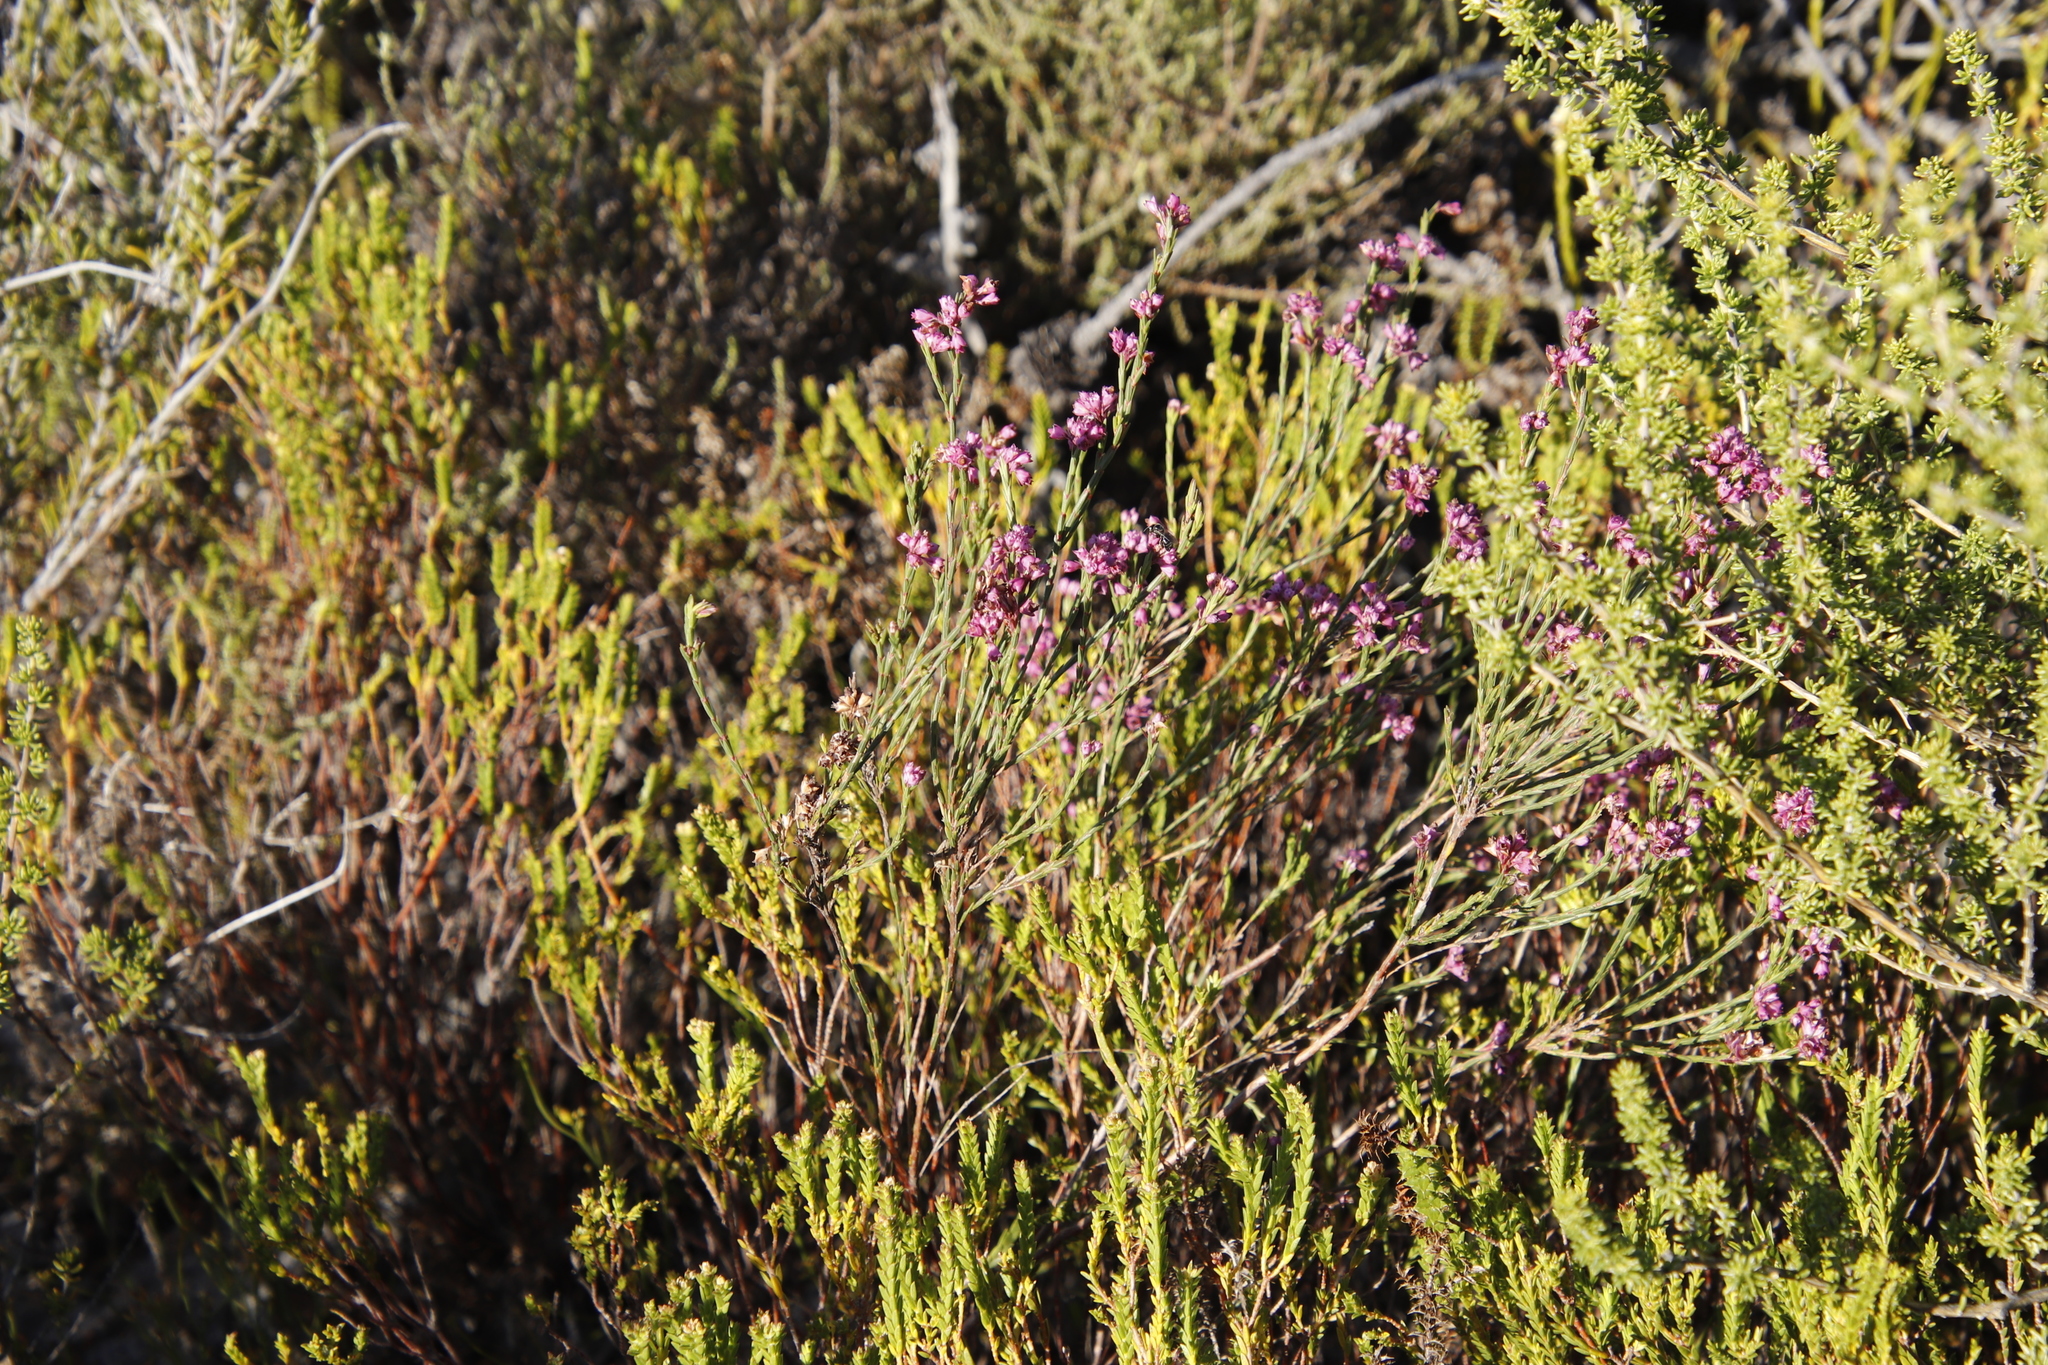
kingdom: Plantae
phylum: Tracheophyta
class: Magnoliopsida
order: Ericales
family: Ericaceae
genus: Erica
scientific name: Erica corifolia
